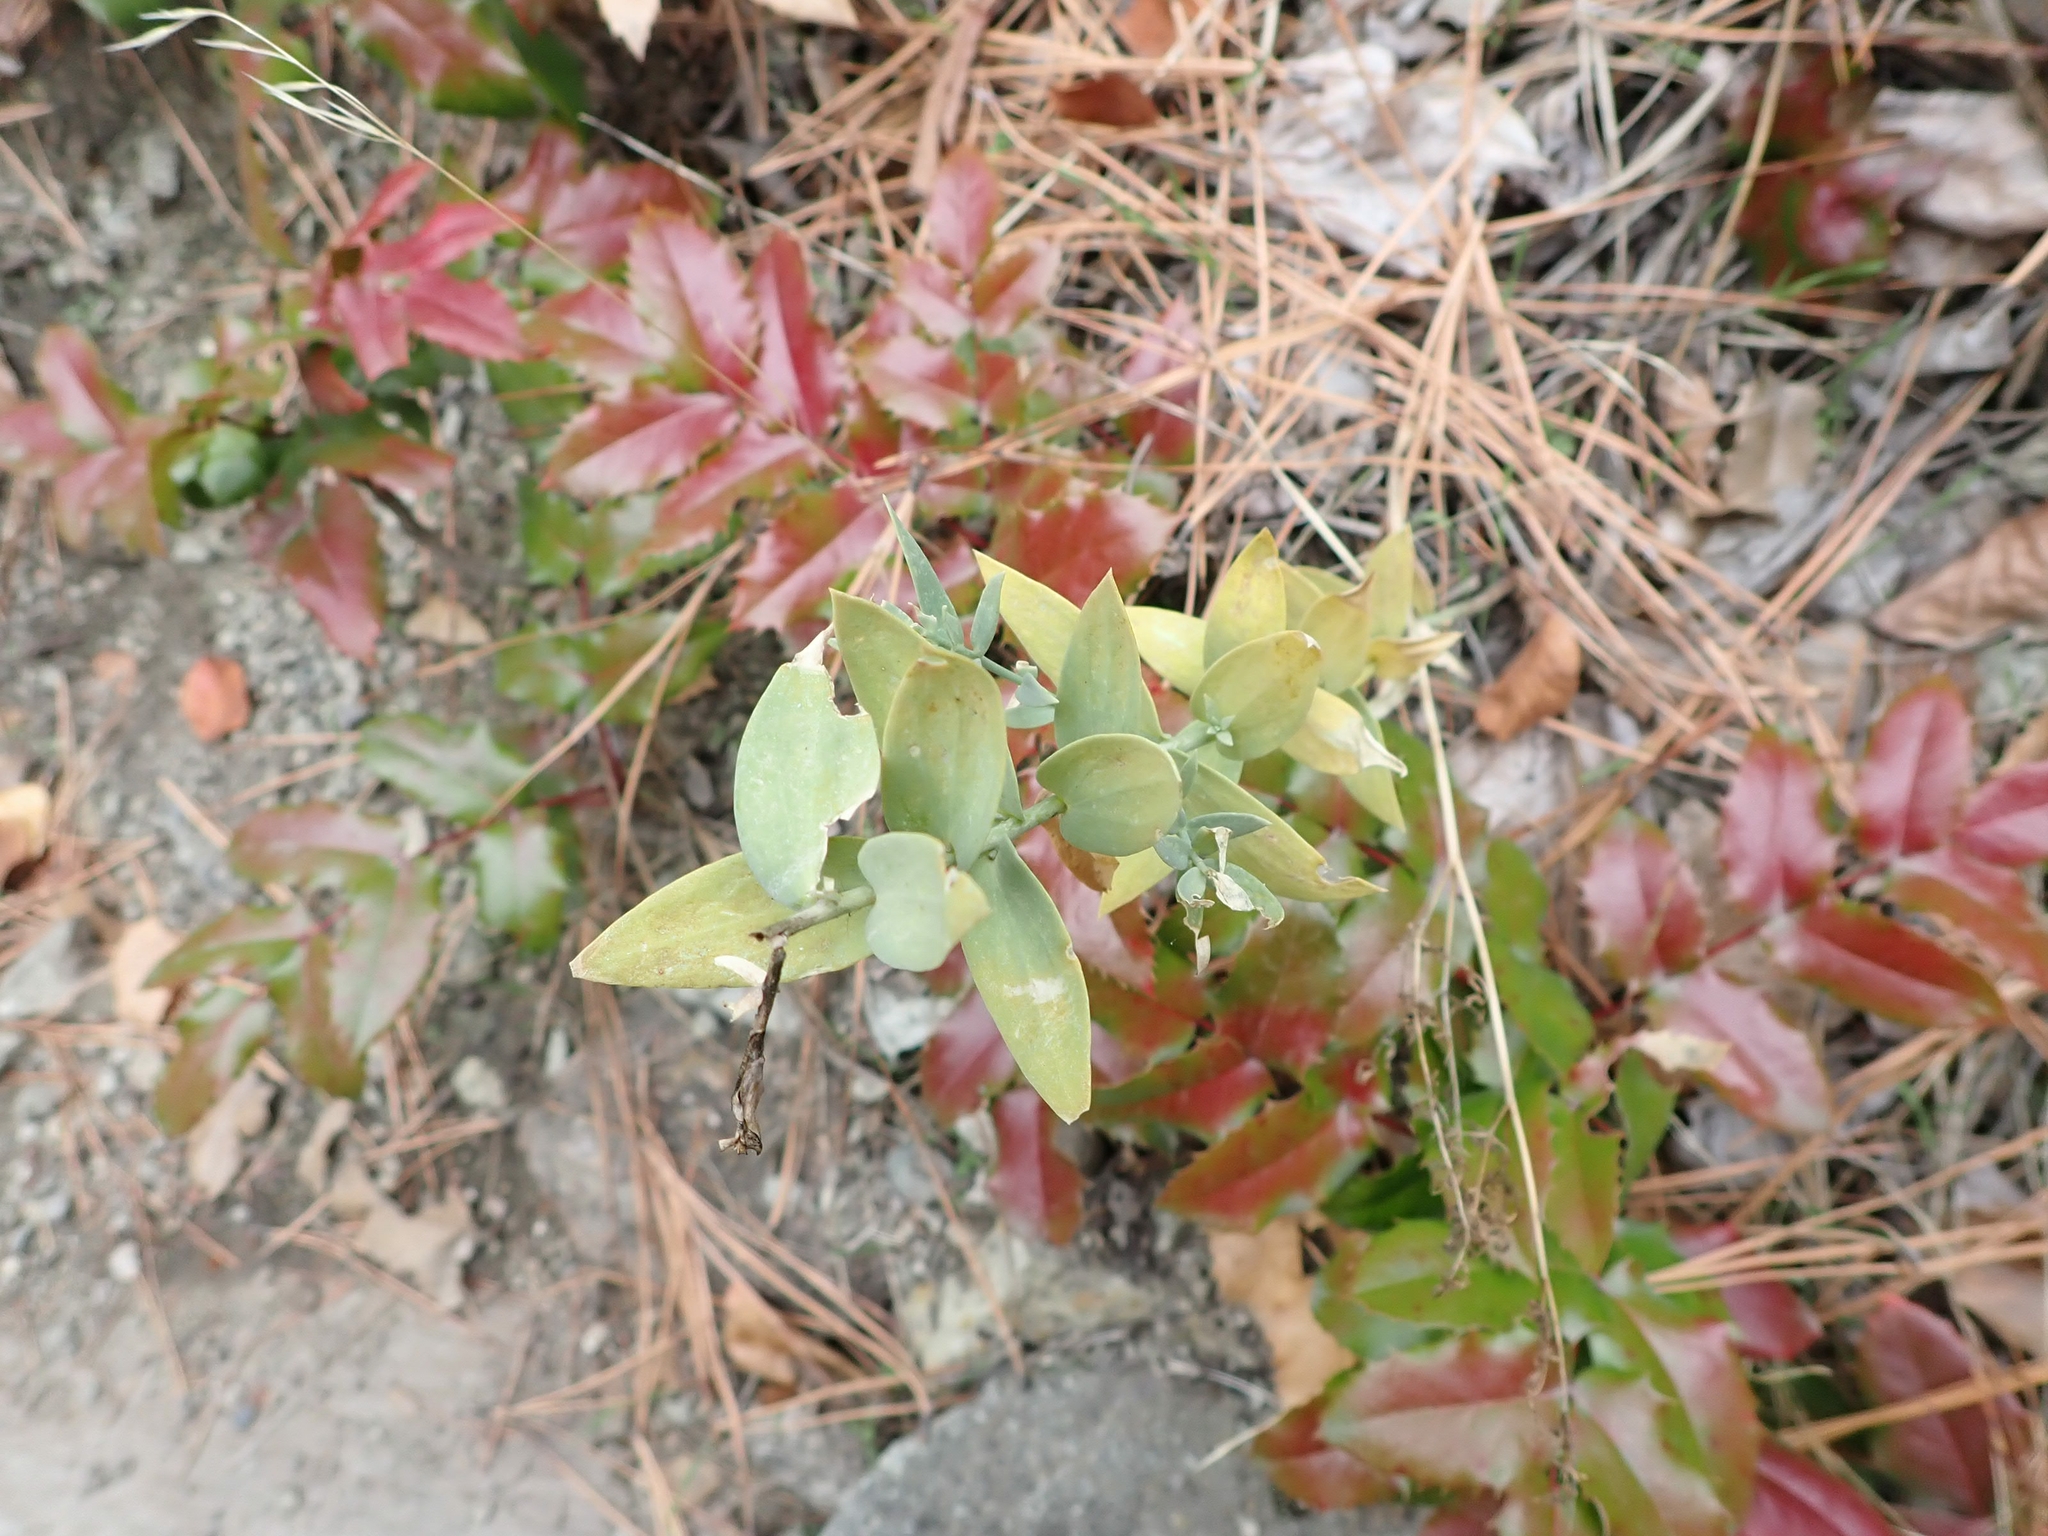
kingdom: Plantae
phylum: Tracheophyta
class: Magnoliopsida
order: Lamiales
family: Plantaginaceae
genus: Linaria
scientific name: Linaria dalmatica
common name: Dalmatian toadflax
